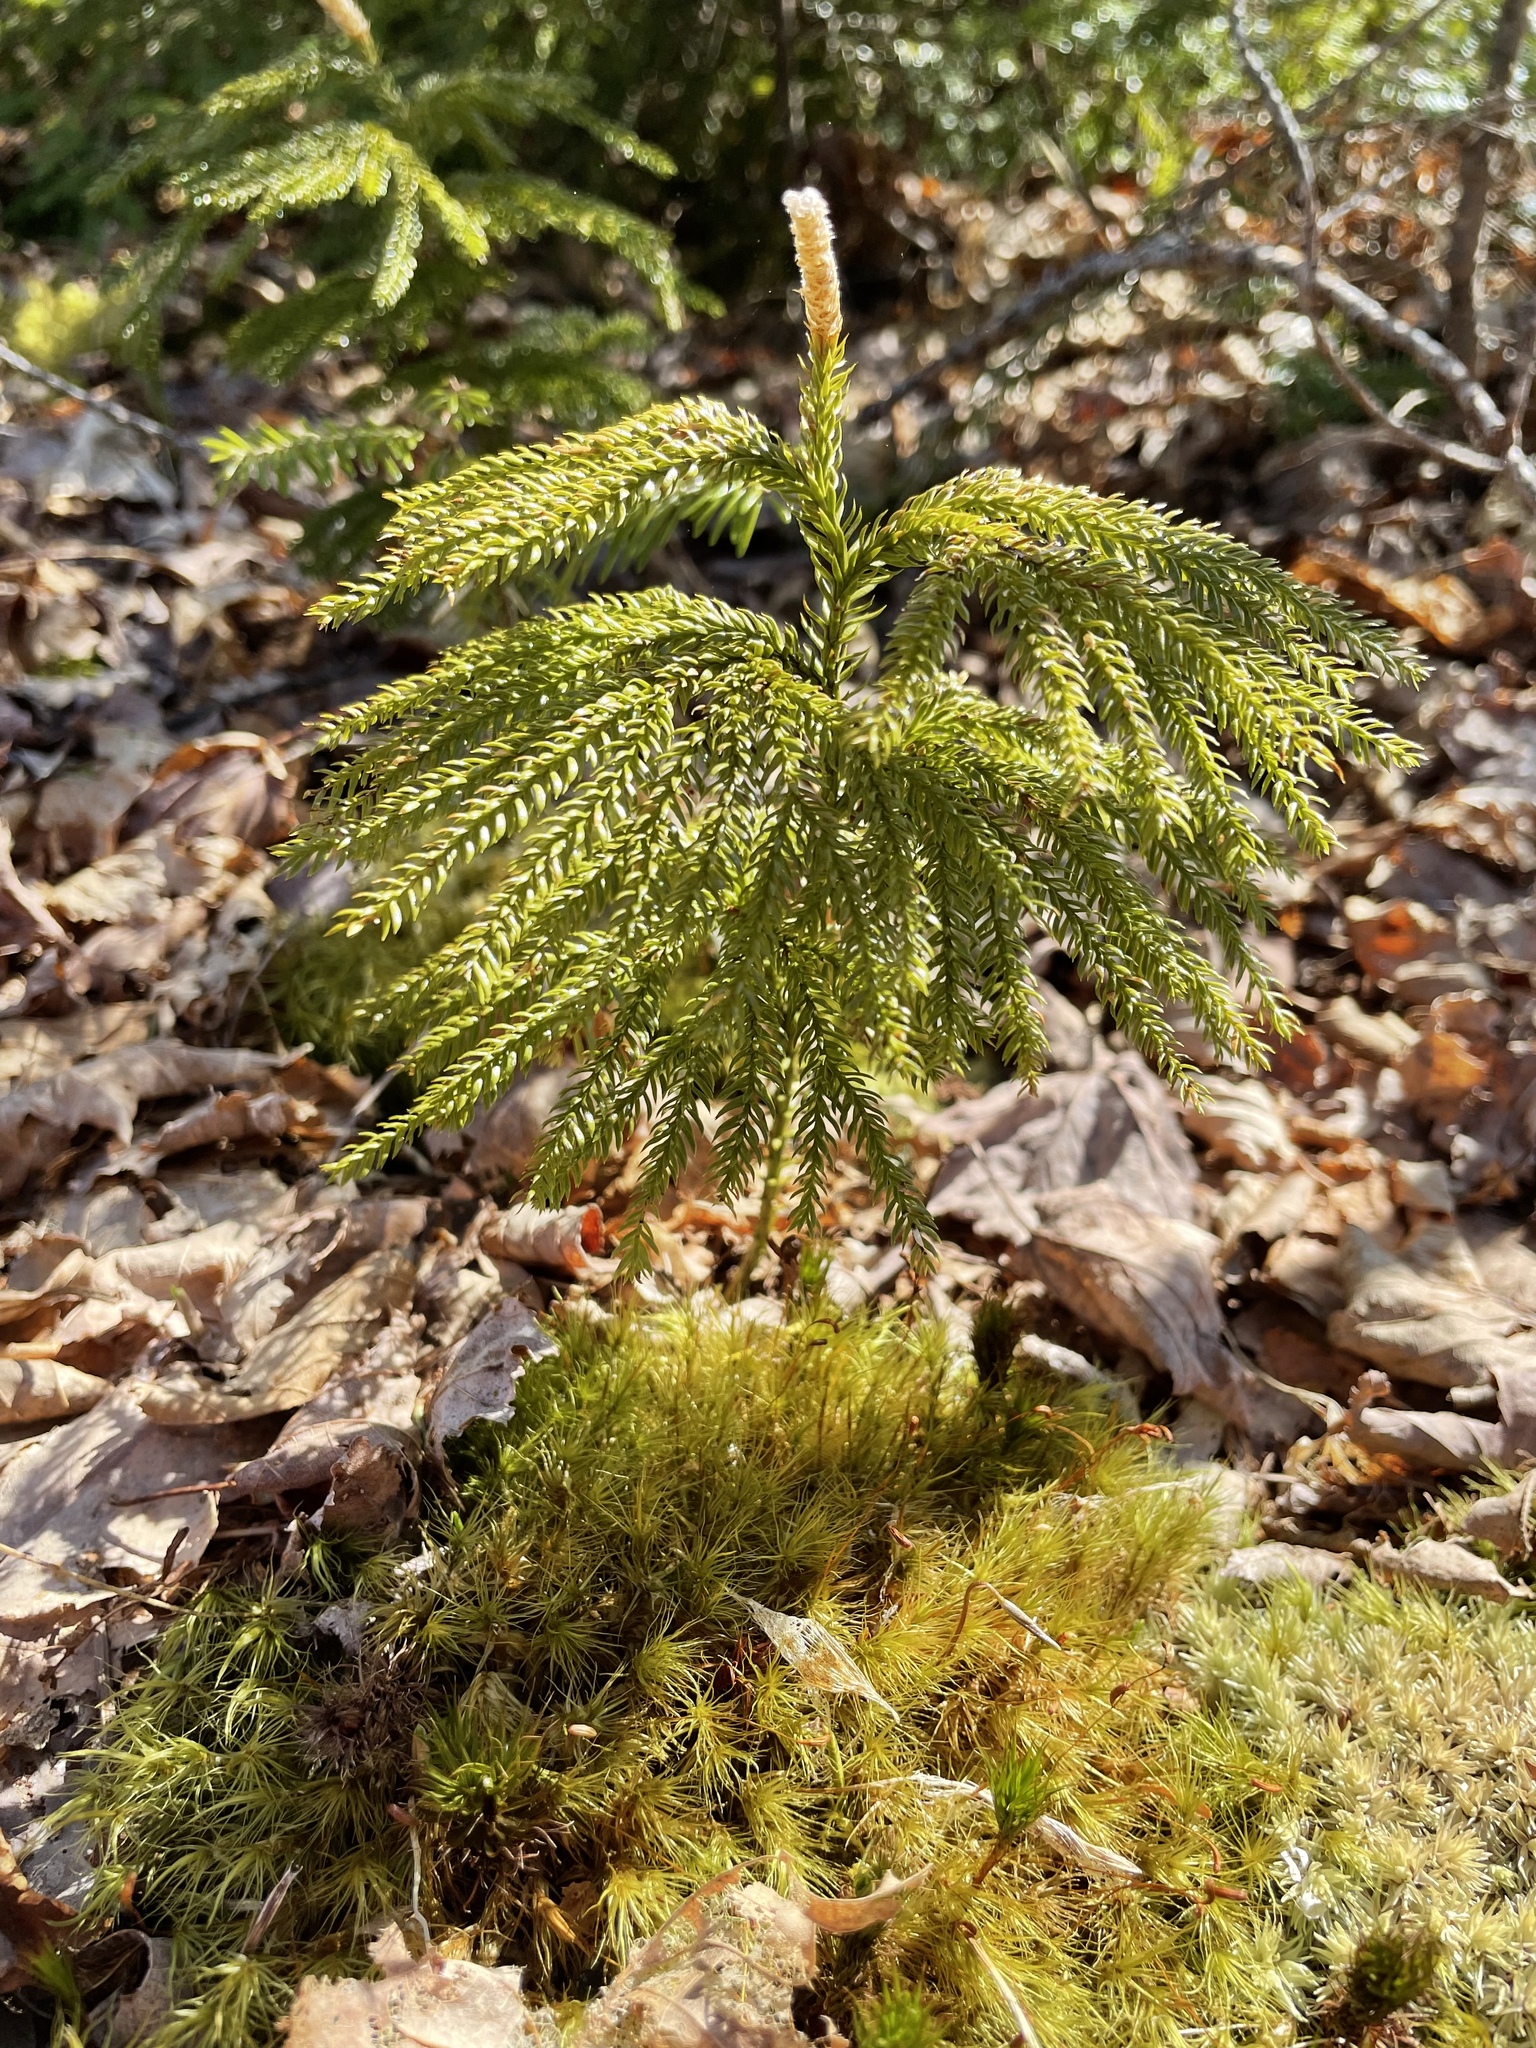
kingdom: Plantae
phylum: Tracheophyta
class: Lycopodiopsida
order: Lycopodiales
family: Lycopodiaceae
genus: Dendrolycopodium
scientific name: Dendrolycopodium dendroideum
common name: Northern tree-clubmoss
